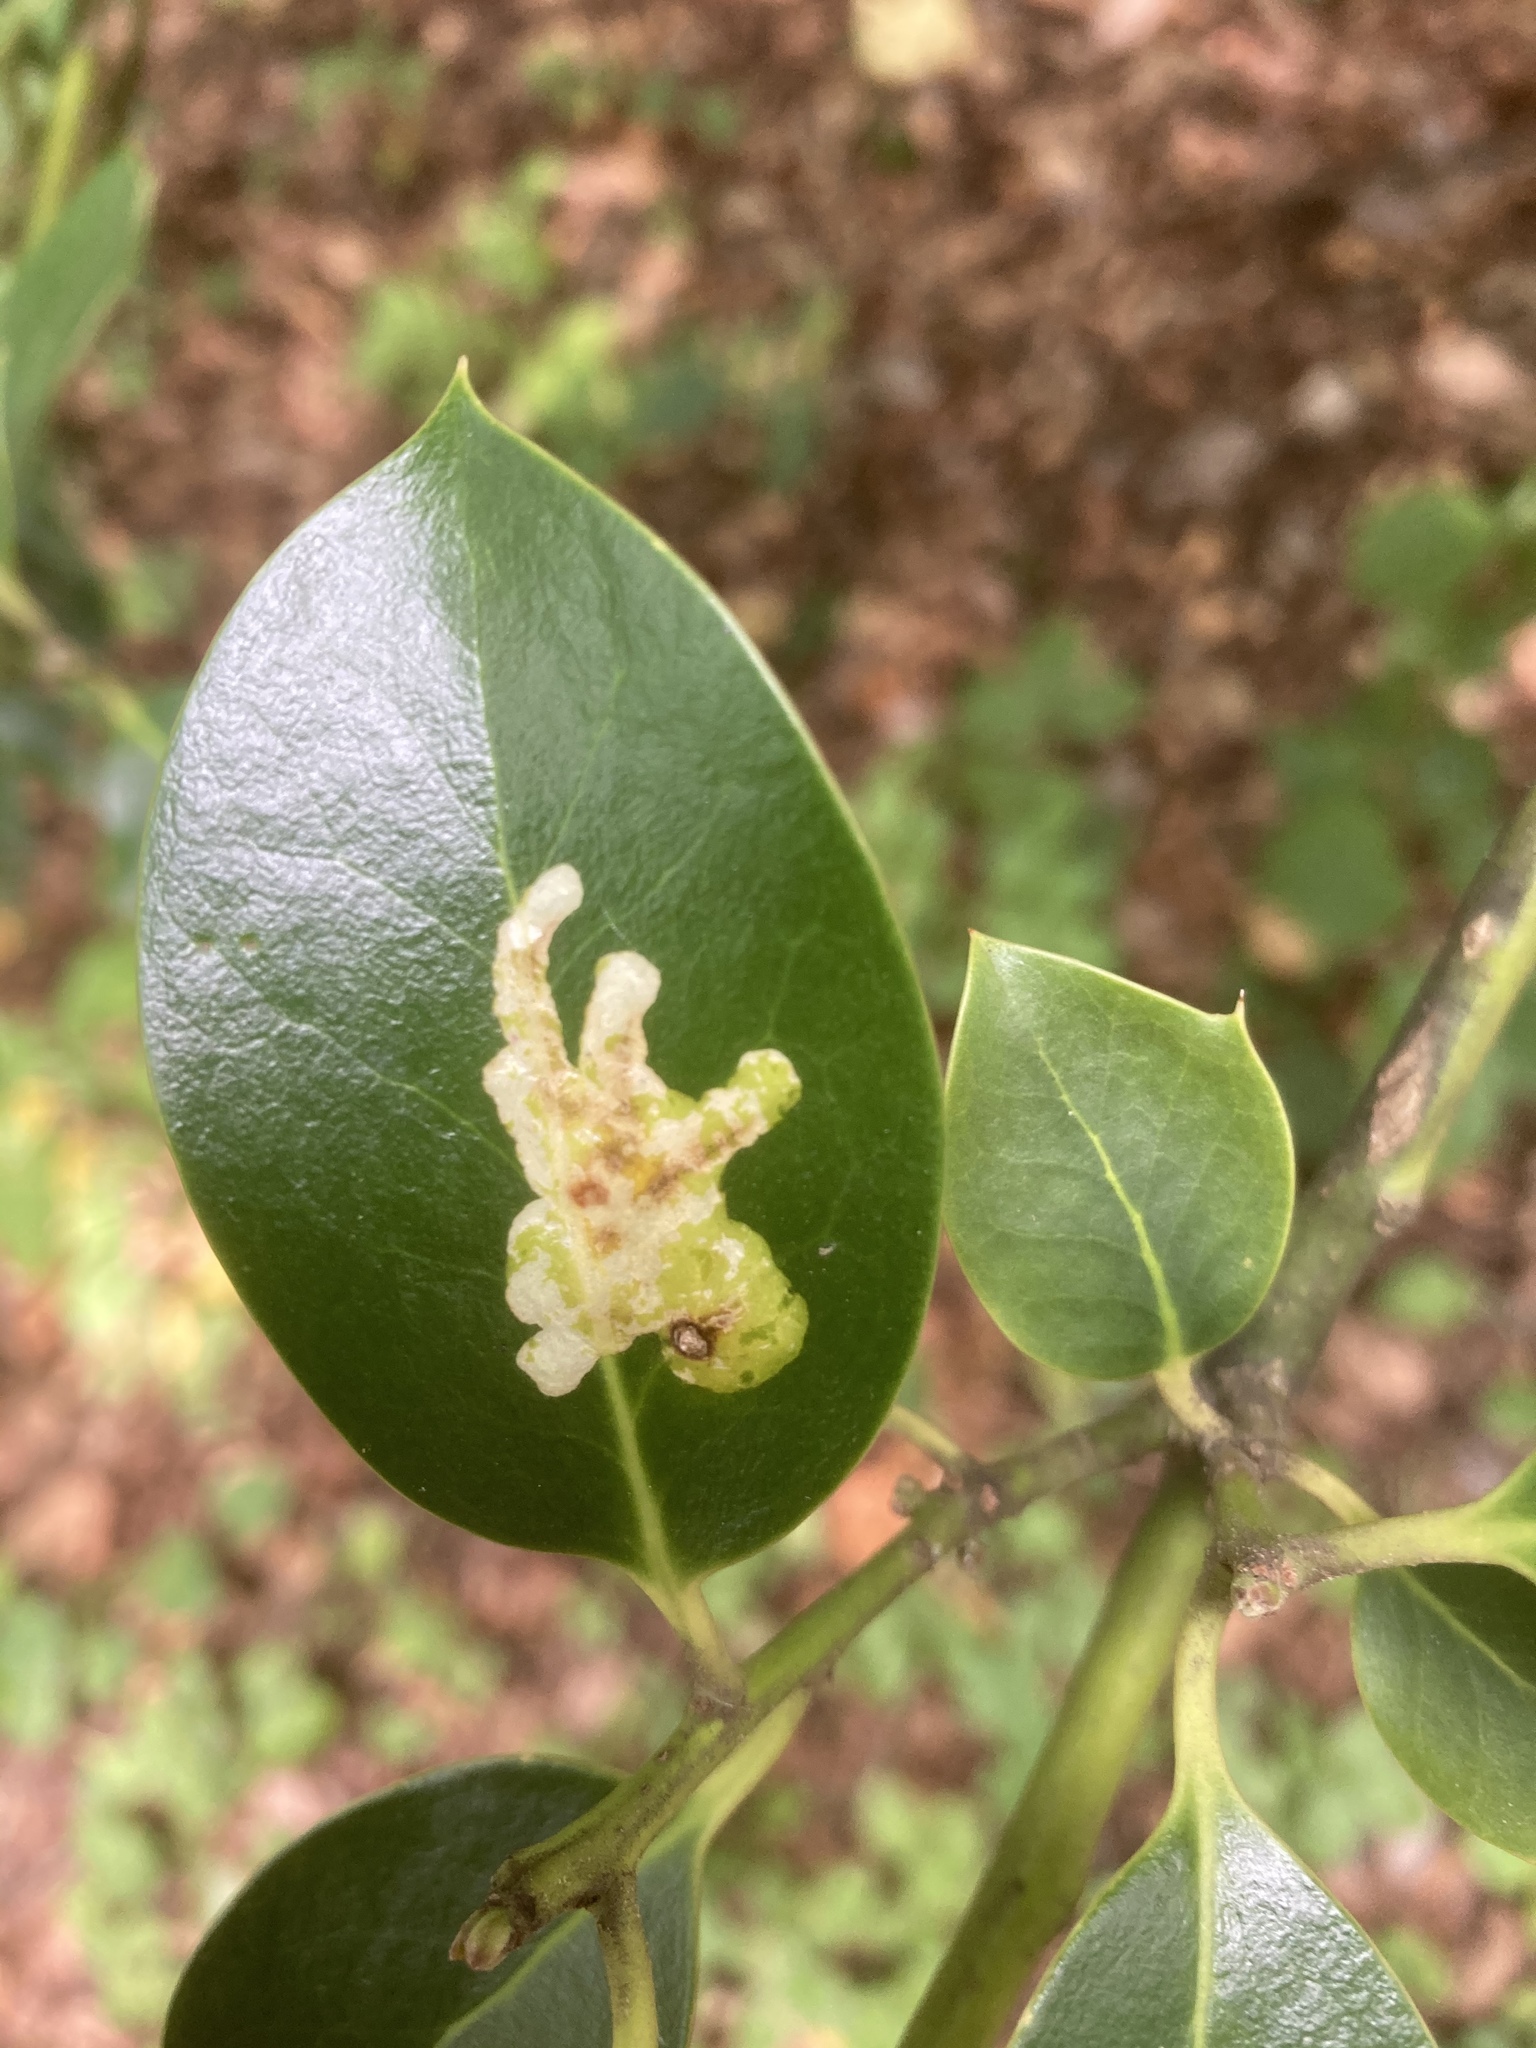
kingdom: Animalia
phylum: Arthropoda
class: Insecta
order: Diptera
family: Agromyzidae
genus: Phytomyza
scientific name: Phytomyza ilicis
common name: Holly leafminer
